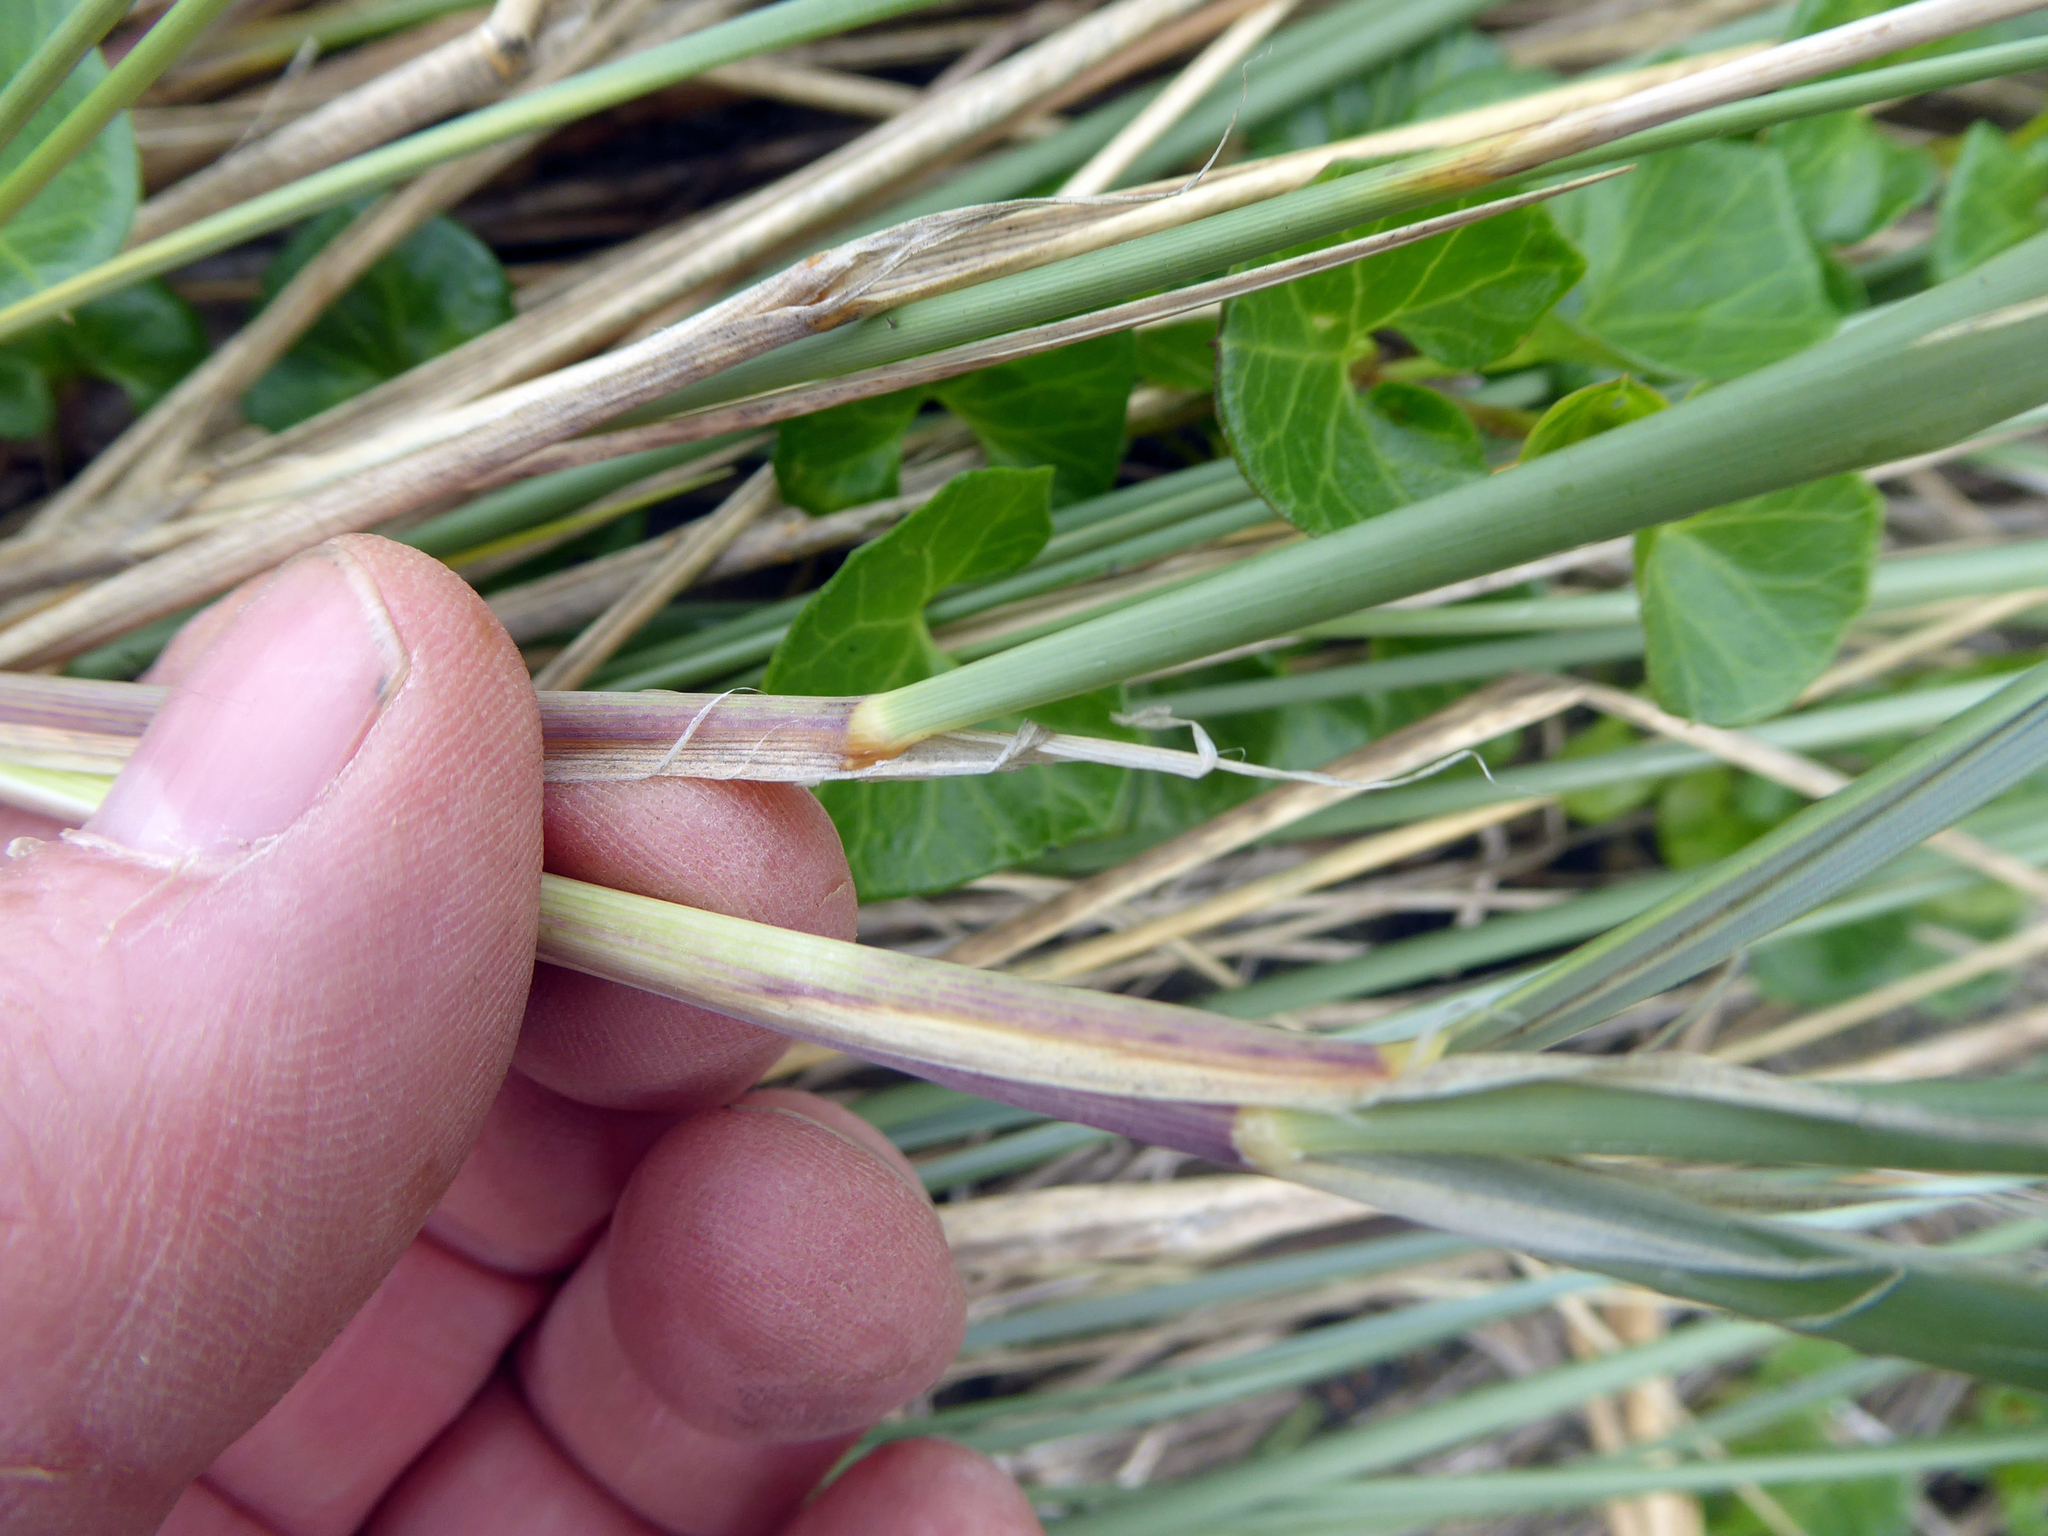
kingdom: Plantae
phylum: Tracheophyta
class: Liliopsida
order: Poales
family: Poaceae
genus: Calamagrostis
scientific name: Calamagrostis arenaria
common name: European beachgrass
